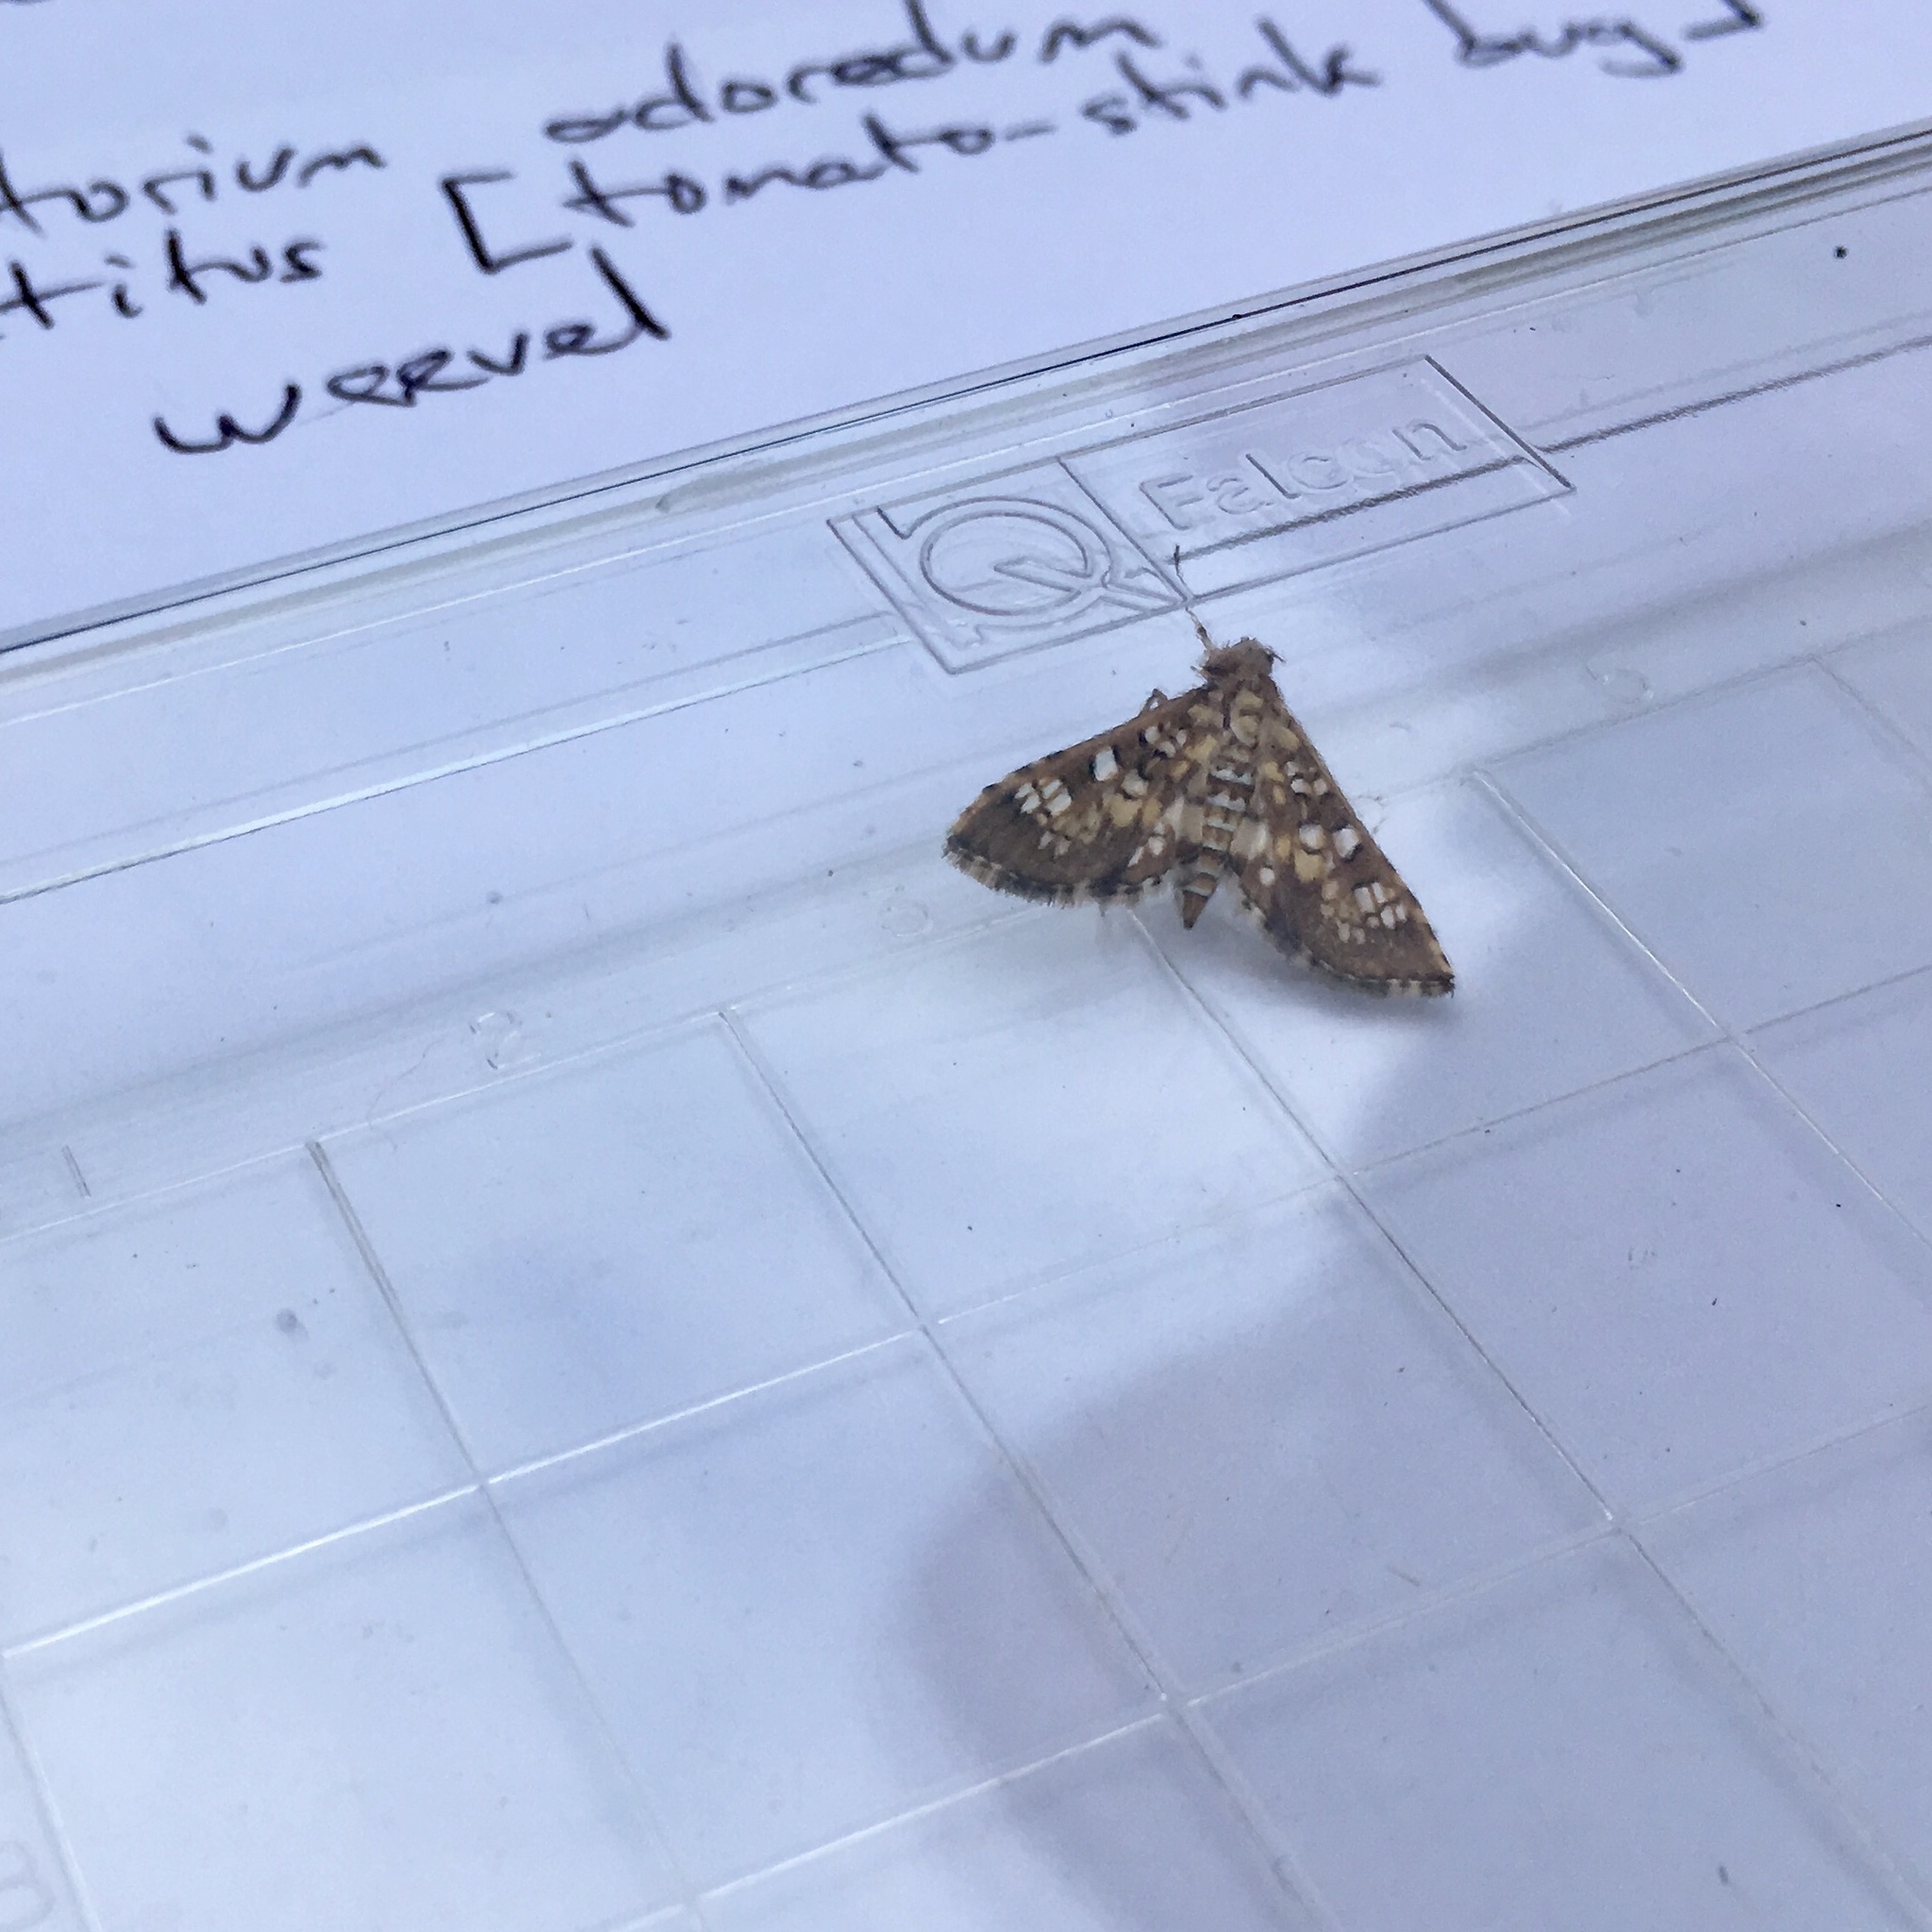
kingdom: Animalia
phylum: Arthropoda
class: Insecta
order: Lepidoptera
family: Crambidae
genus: Samea
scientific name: Samea ecclesialis
